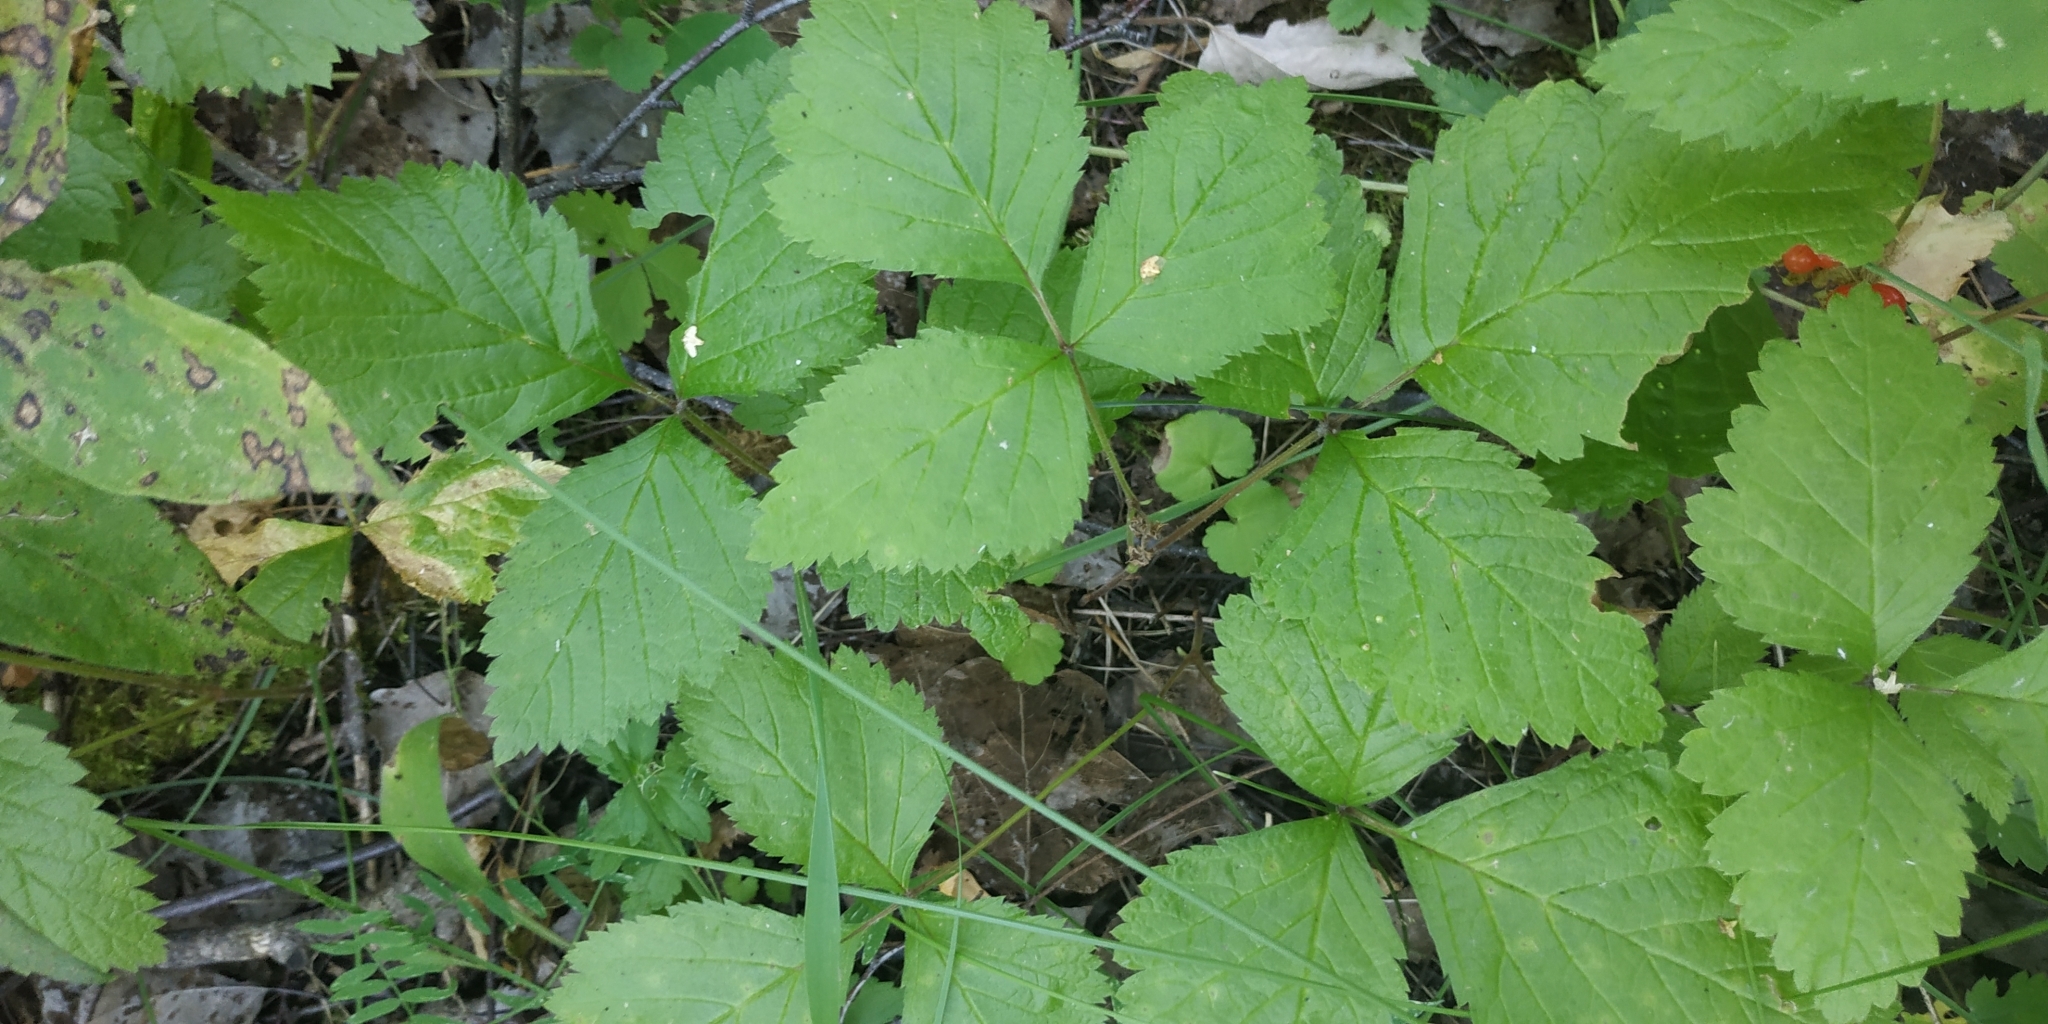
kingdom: Plantae
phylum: Tracheophyta
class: Magnoliopsida
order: Rosales
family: Rosaceae
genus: Rubus
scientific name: Rubus saxatilis
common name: Stone bramble
